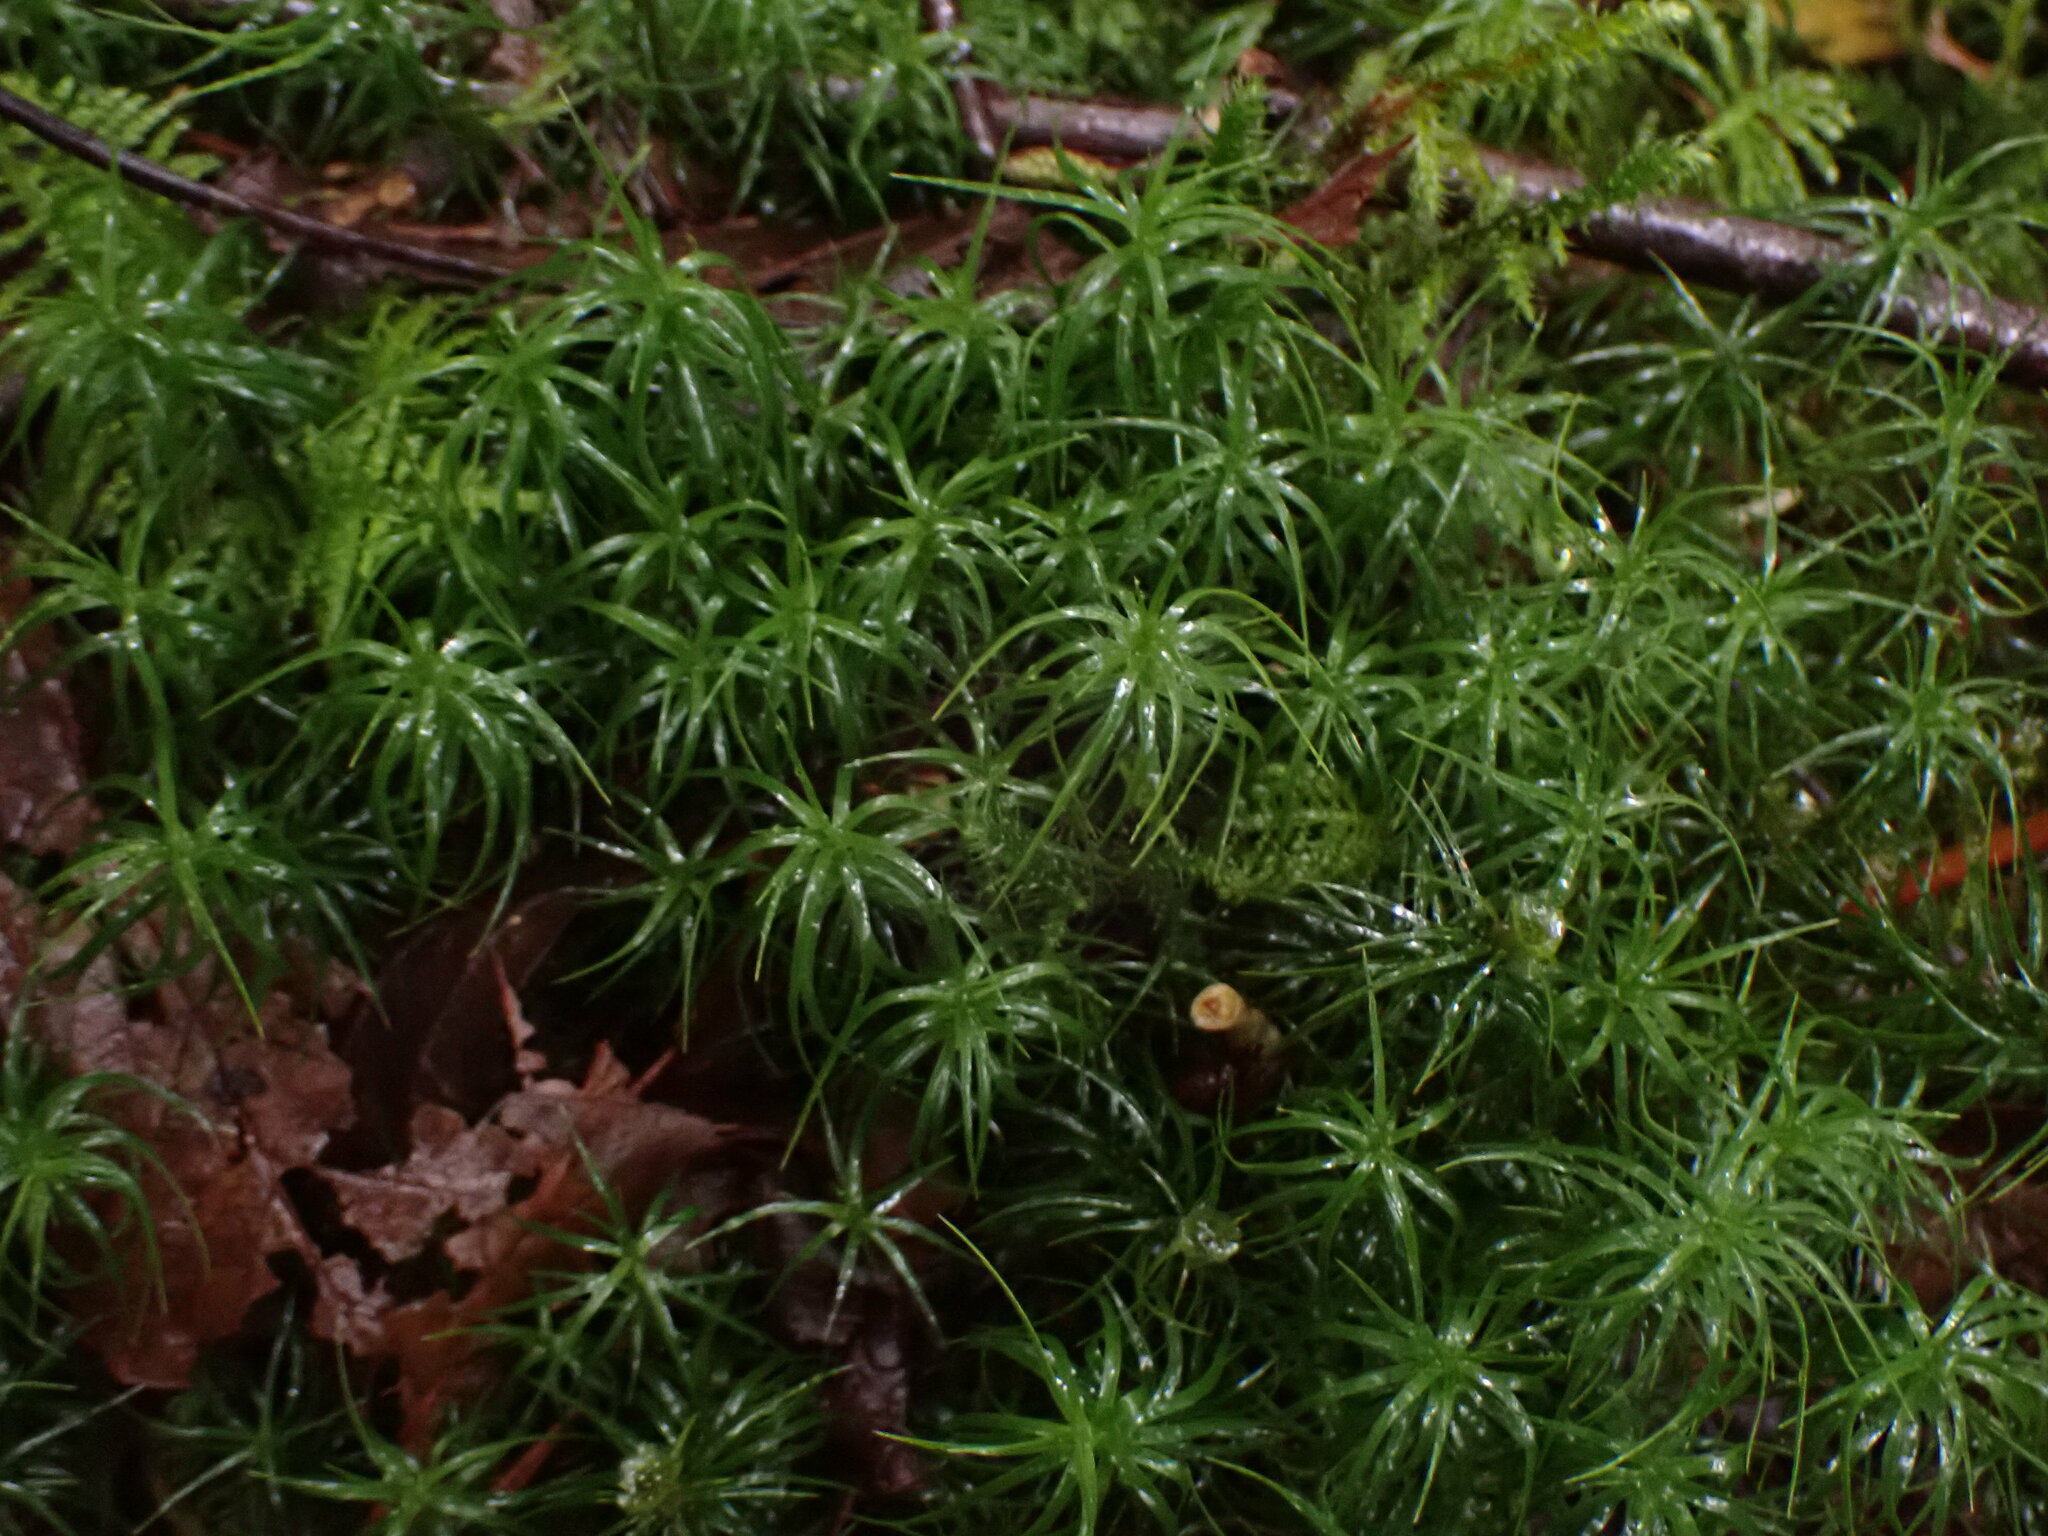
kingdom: Plantae
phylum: Bryophyta
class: Polytrichopsida
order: Polytrichales
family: Polytrichaceae
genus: Polytrichastrum
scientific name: Polytrichastrum alpinum
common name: Alpine haircap
